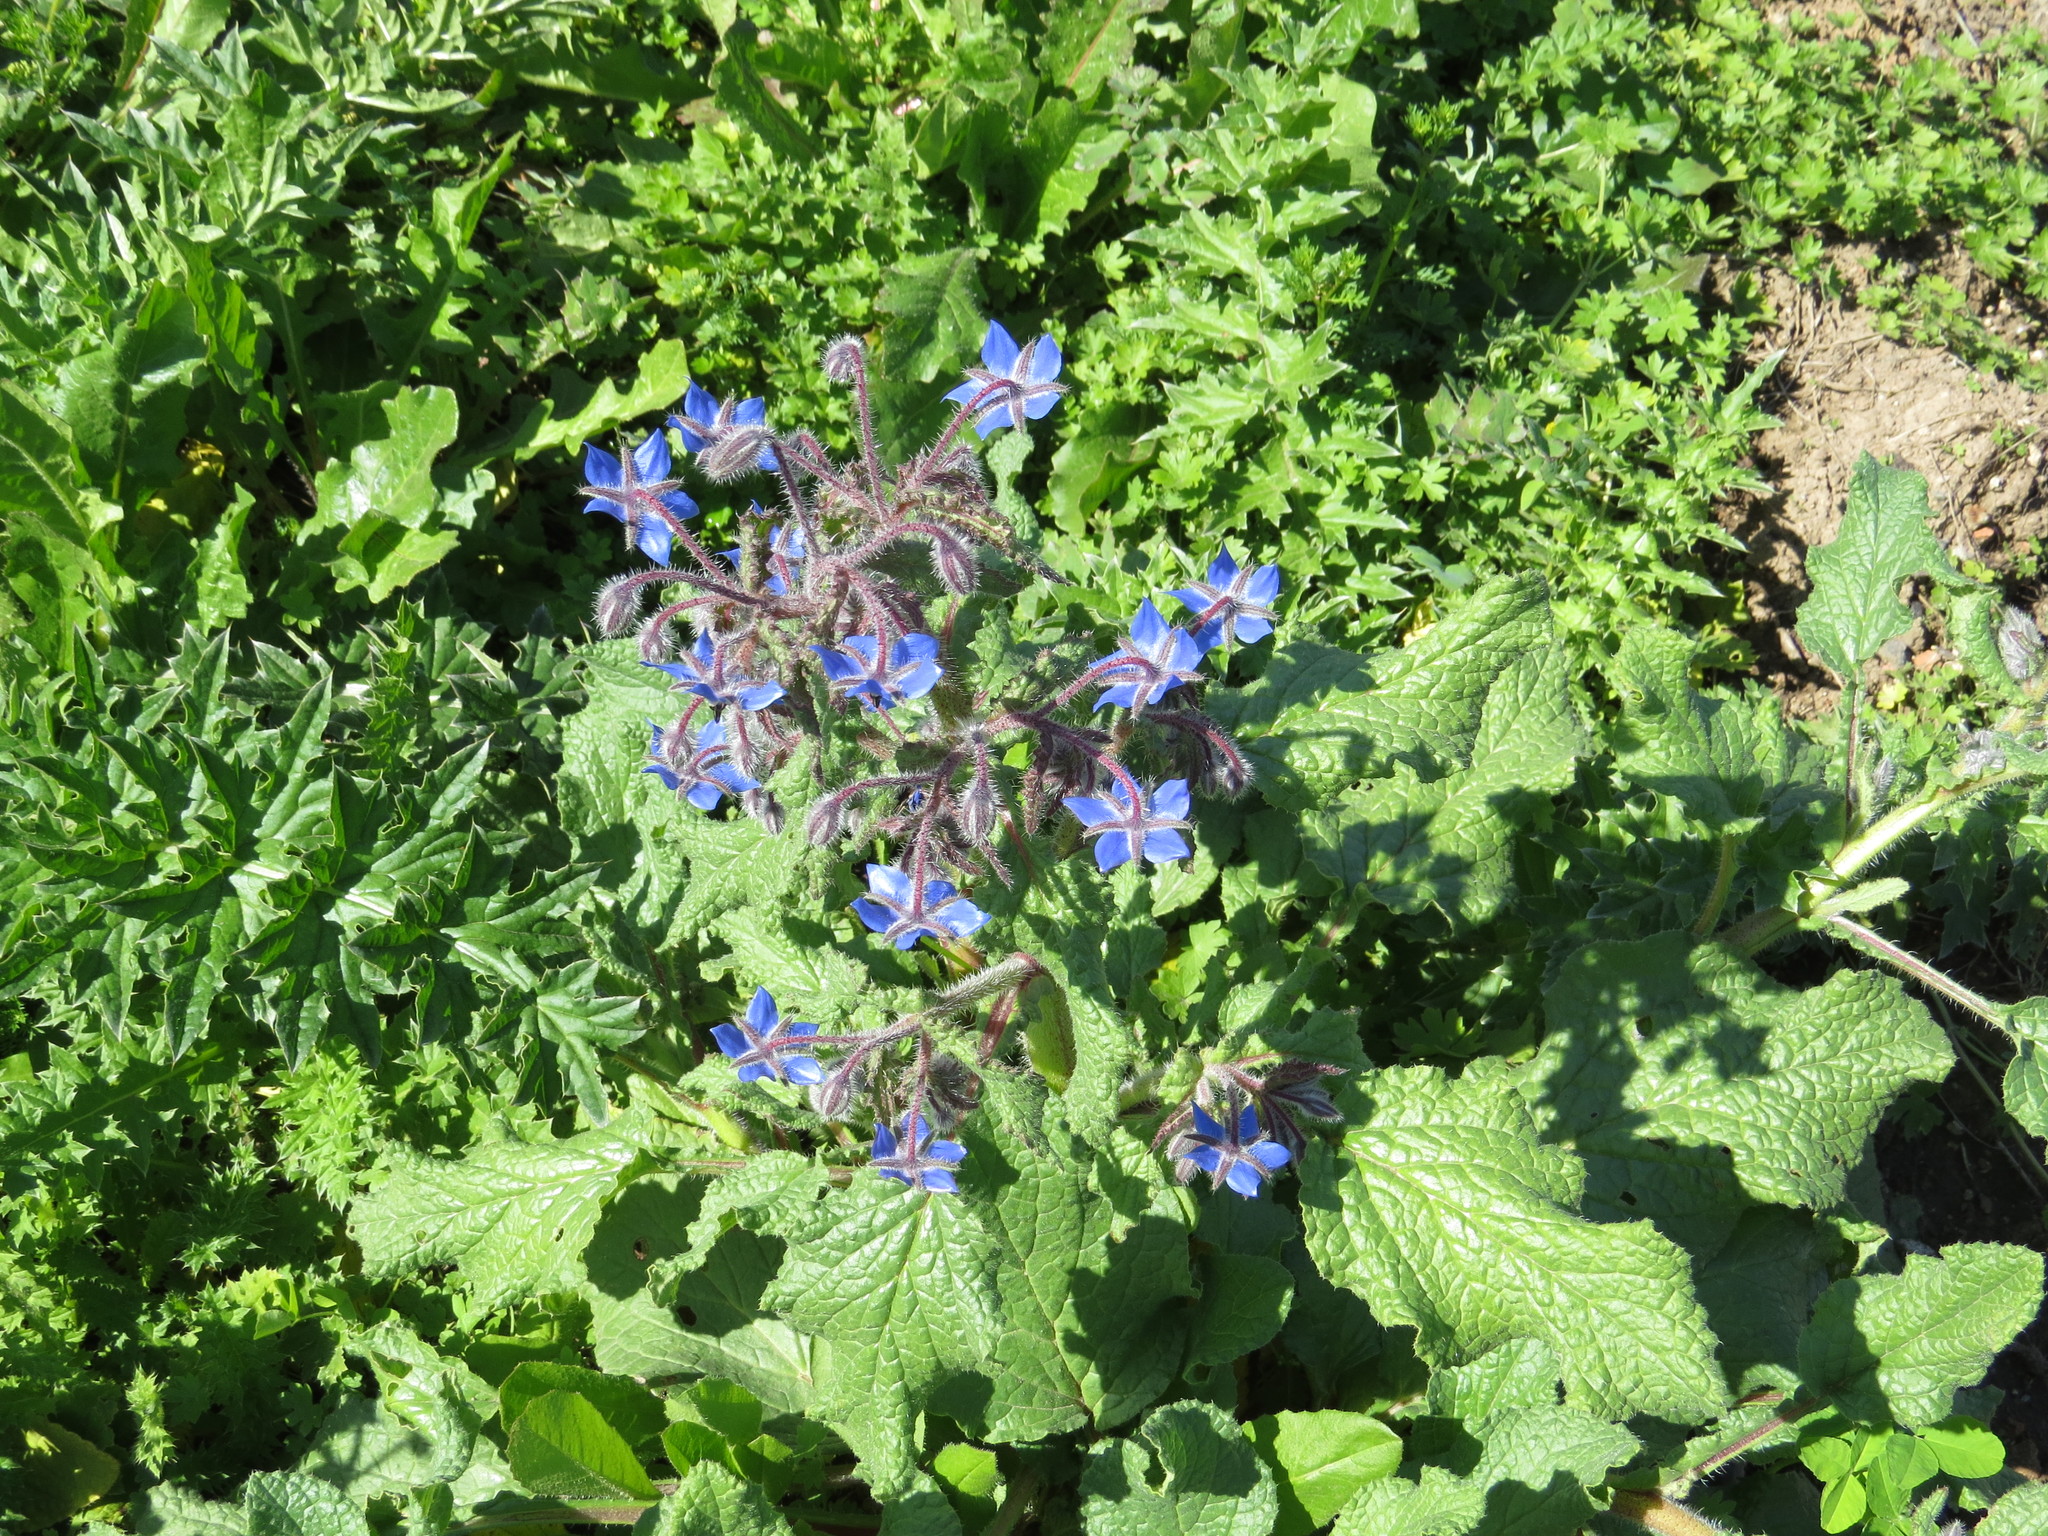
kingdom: Plantae
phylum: Tracheophyta
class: Magnoliopsida
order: Boraginales
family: Boraginaceae
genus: Borago
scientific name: Borago officinalis
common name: Borage
